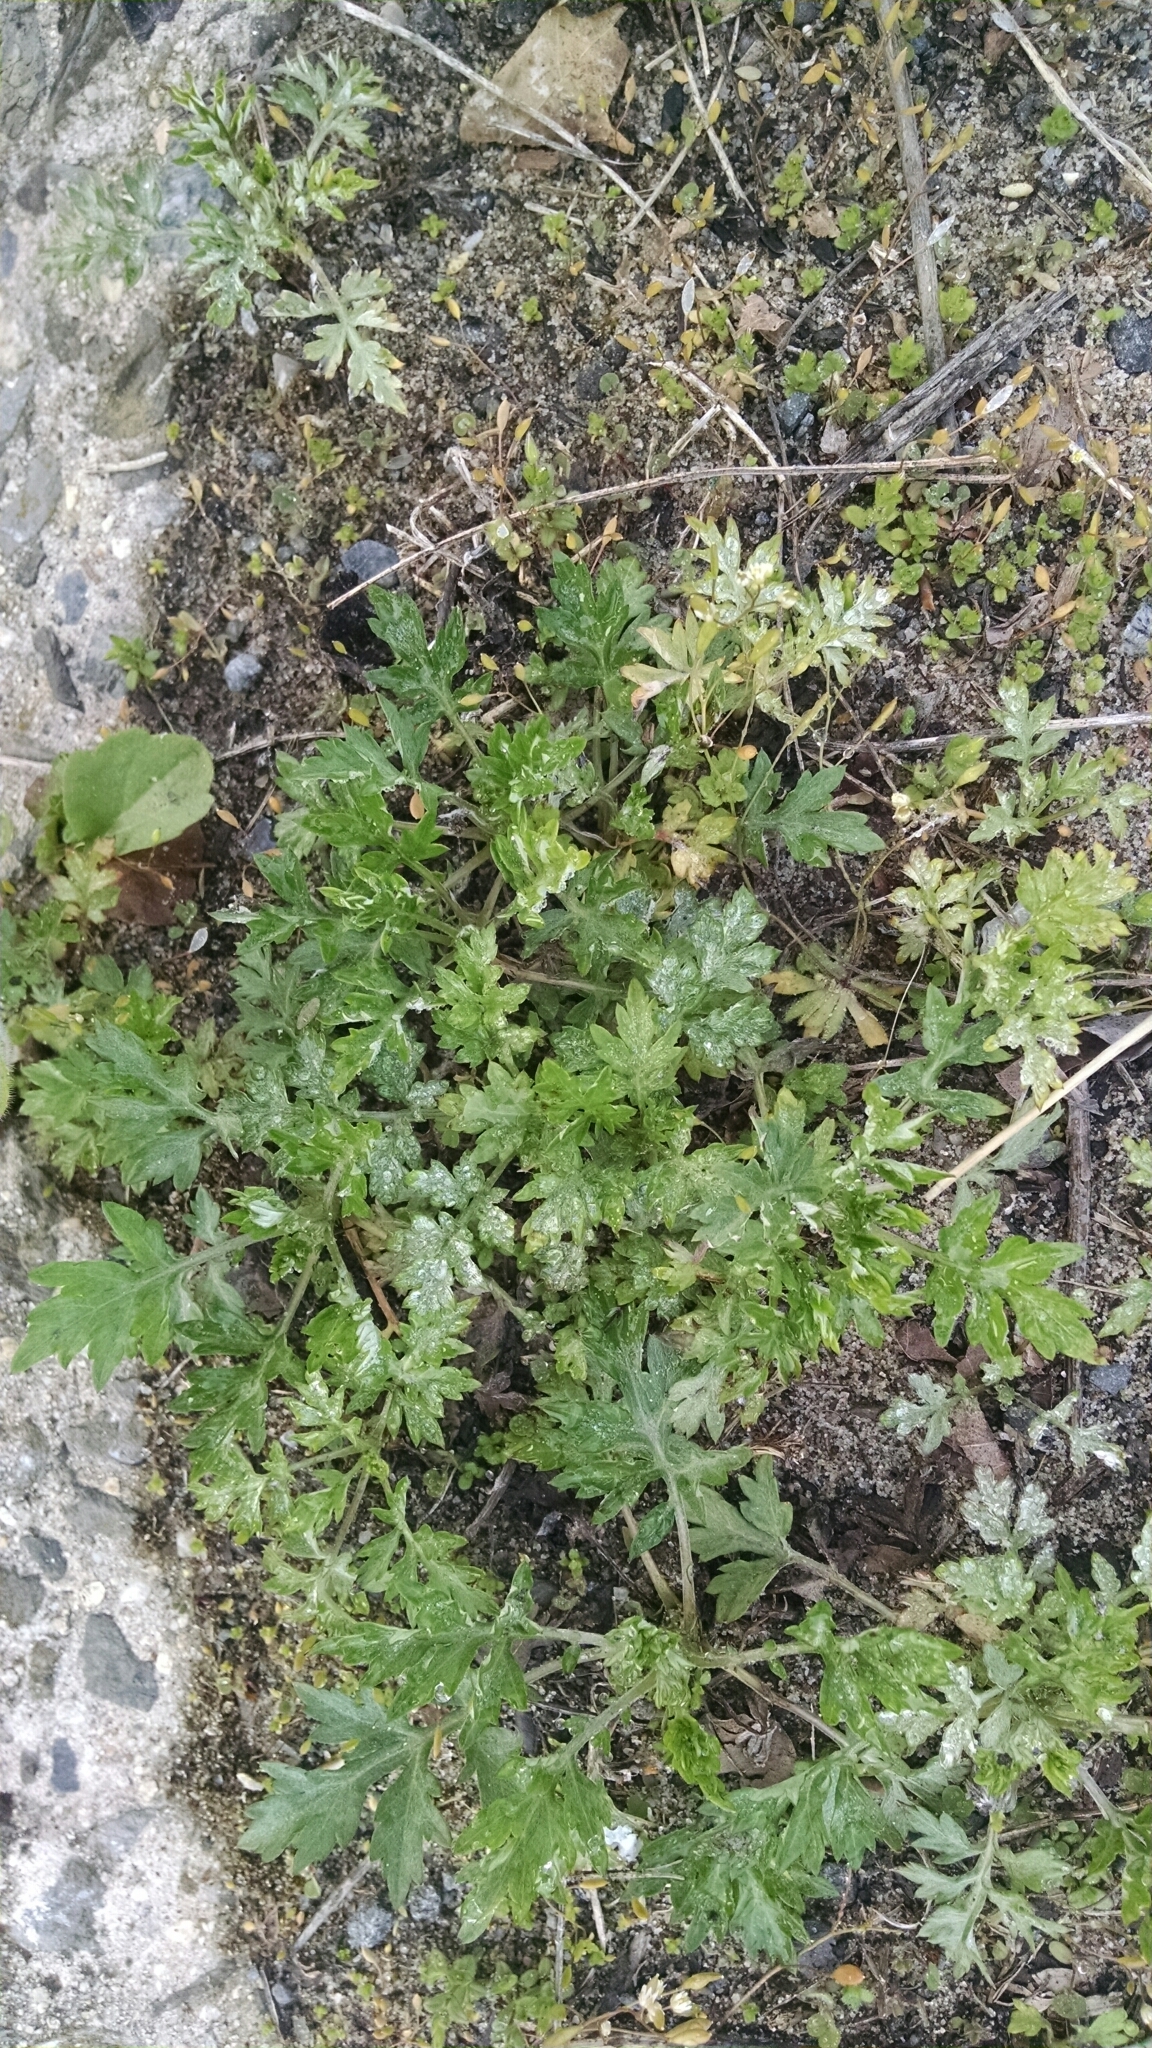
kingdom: Plantae
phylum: Tracheophyta
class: Magnoliopsida
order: Asterales
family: Asteraceae
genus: Artemisia
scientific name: Artemisia vulgaris
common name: Mugwort
